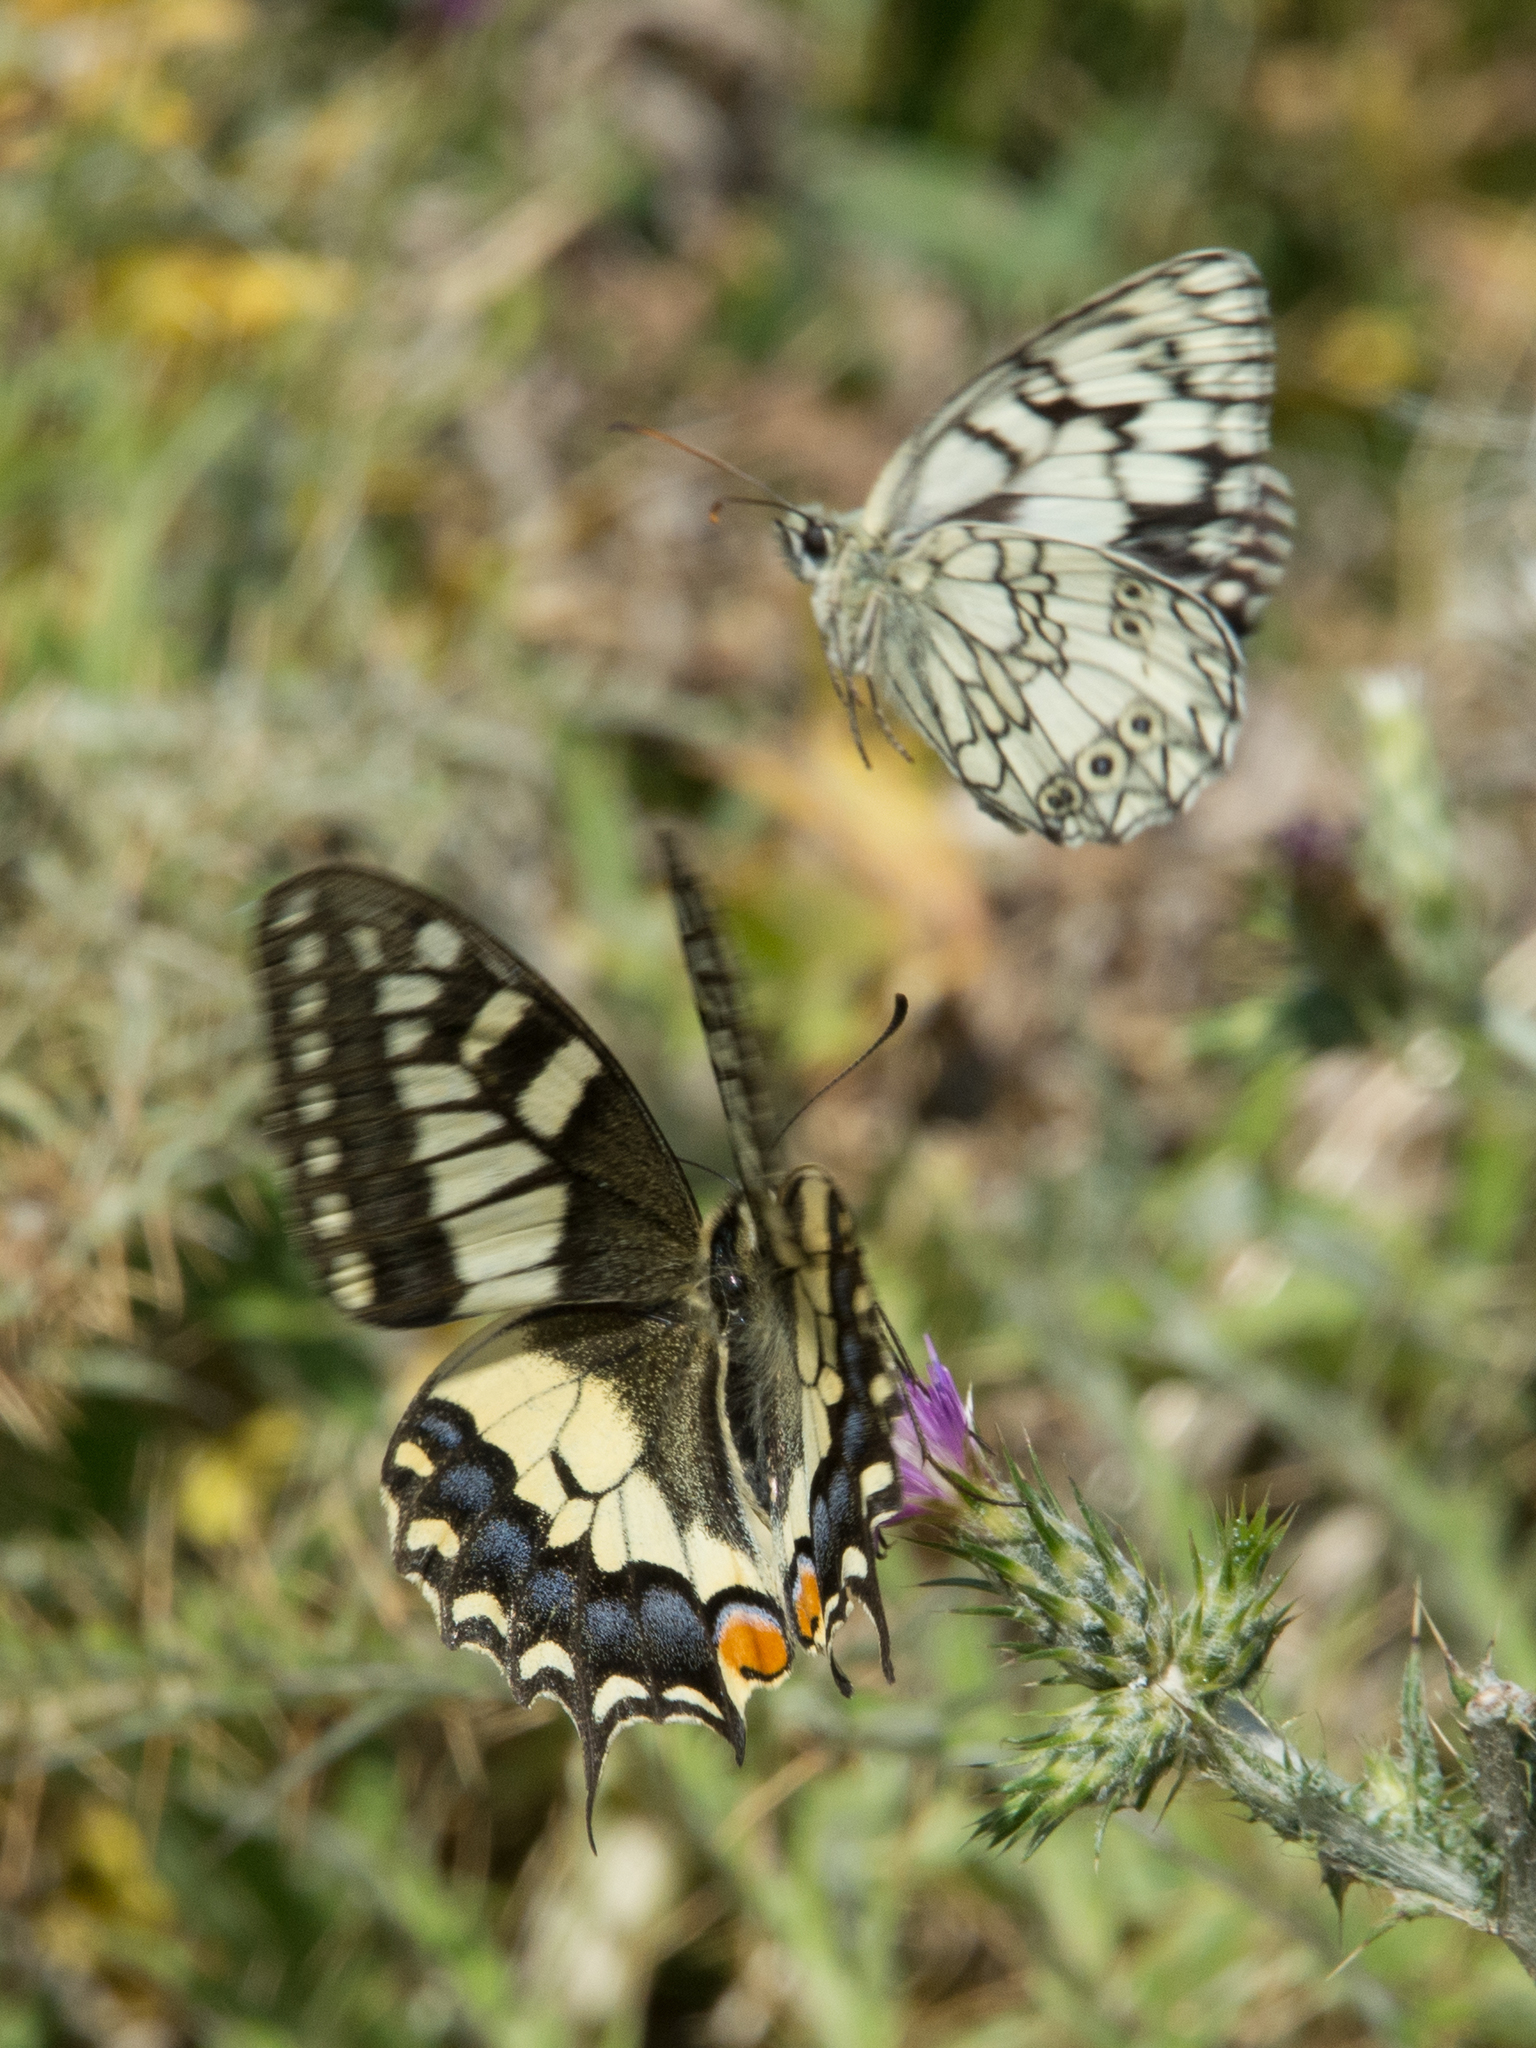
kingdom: Animalia
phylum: Arthropoda
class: Insecta
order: Lepidoptera
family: Papilionidae
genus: Papilio
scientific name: Papilio machaon
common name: Swallowtail
